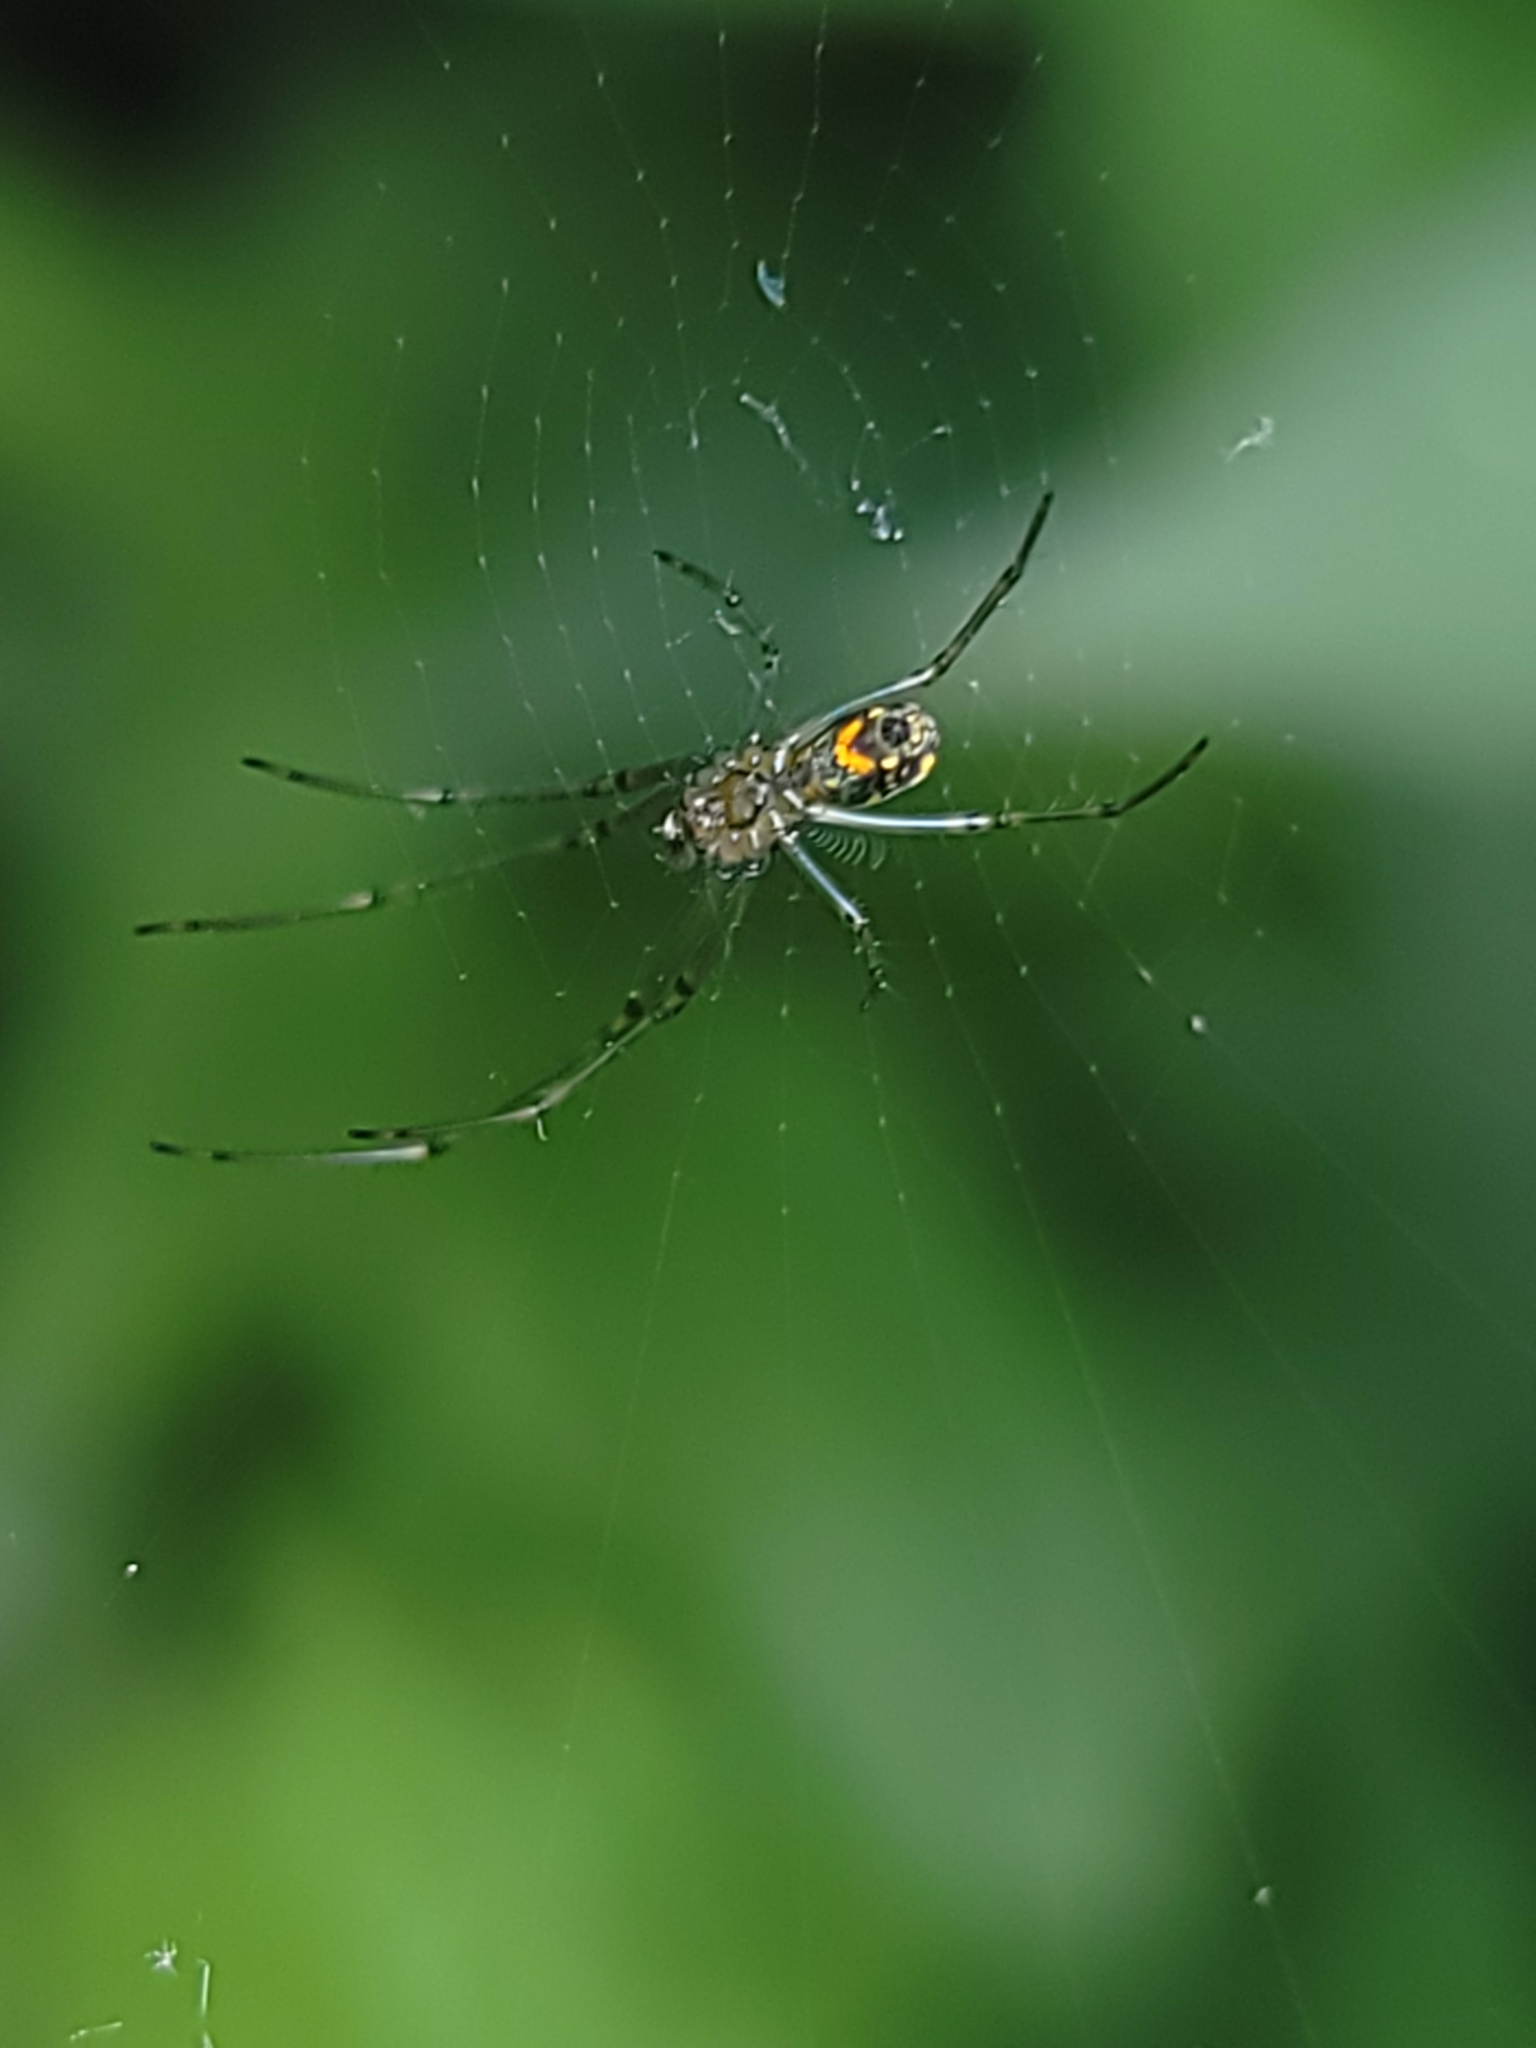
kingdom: Animalia
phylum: Arthropoda
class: Arachnida
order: Araneae
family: Tetragnathidae
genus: Leucauge
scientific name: Leucauge venusta
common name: Longjawed orb weavers
